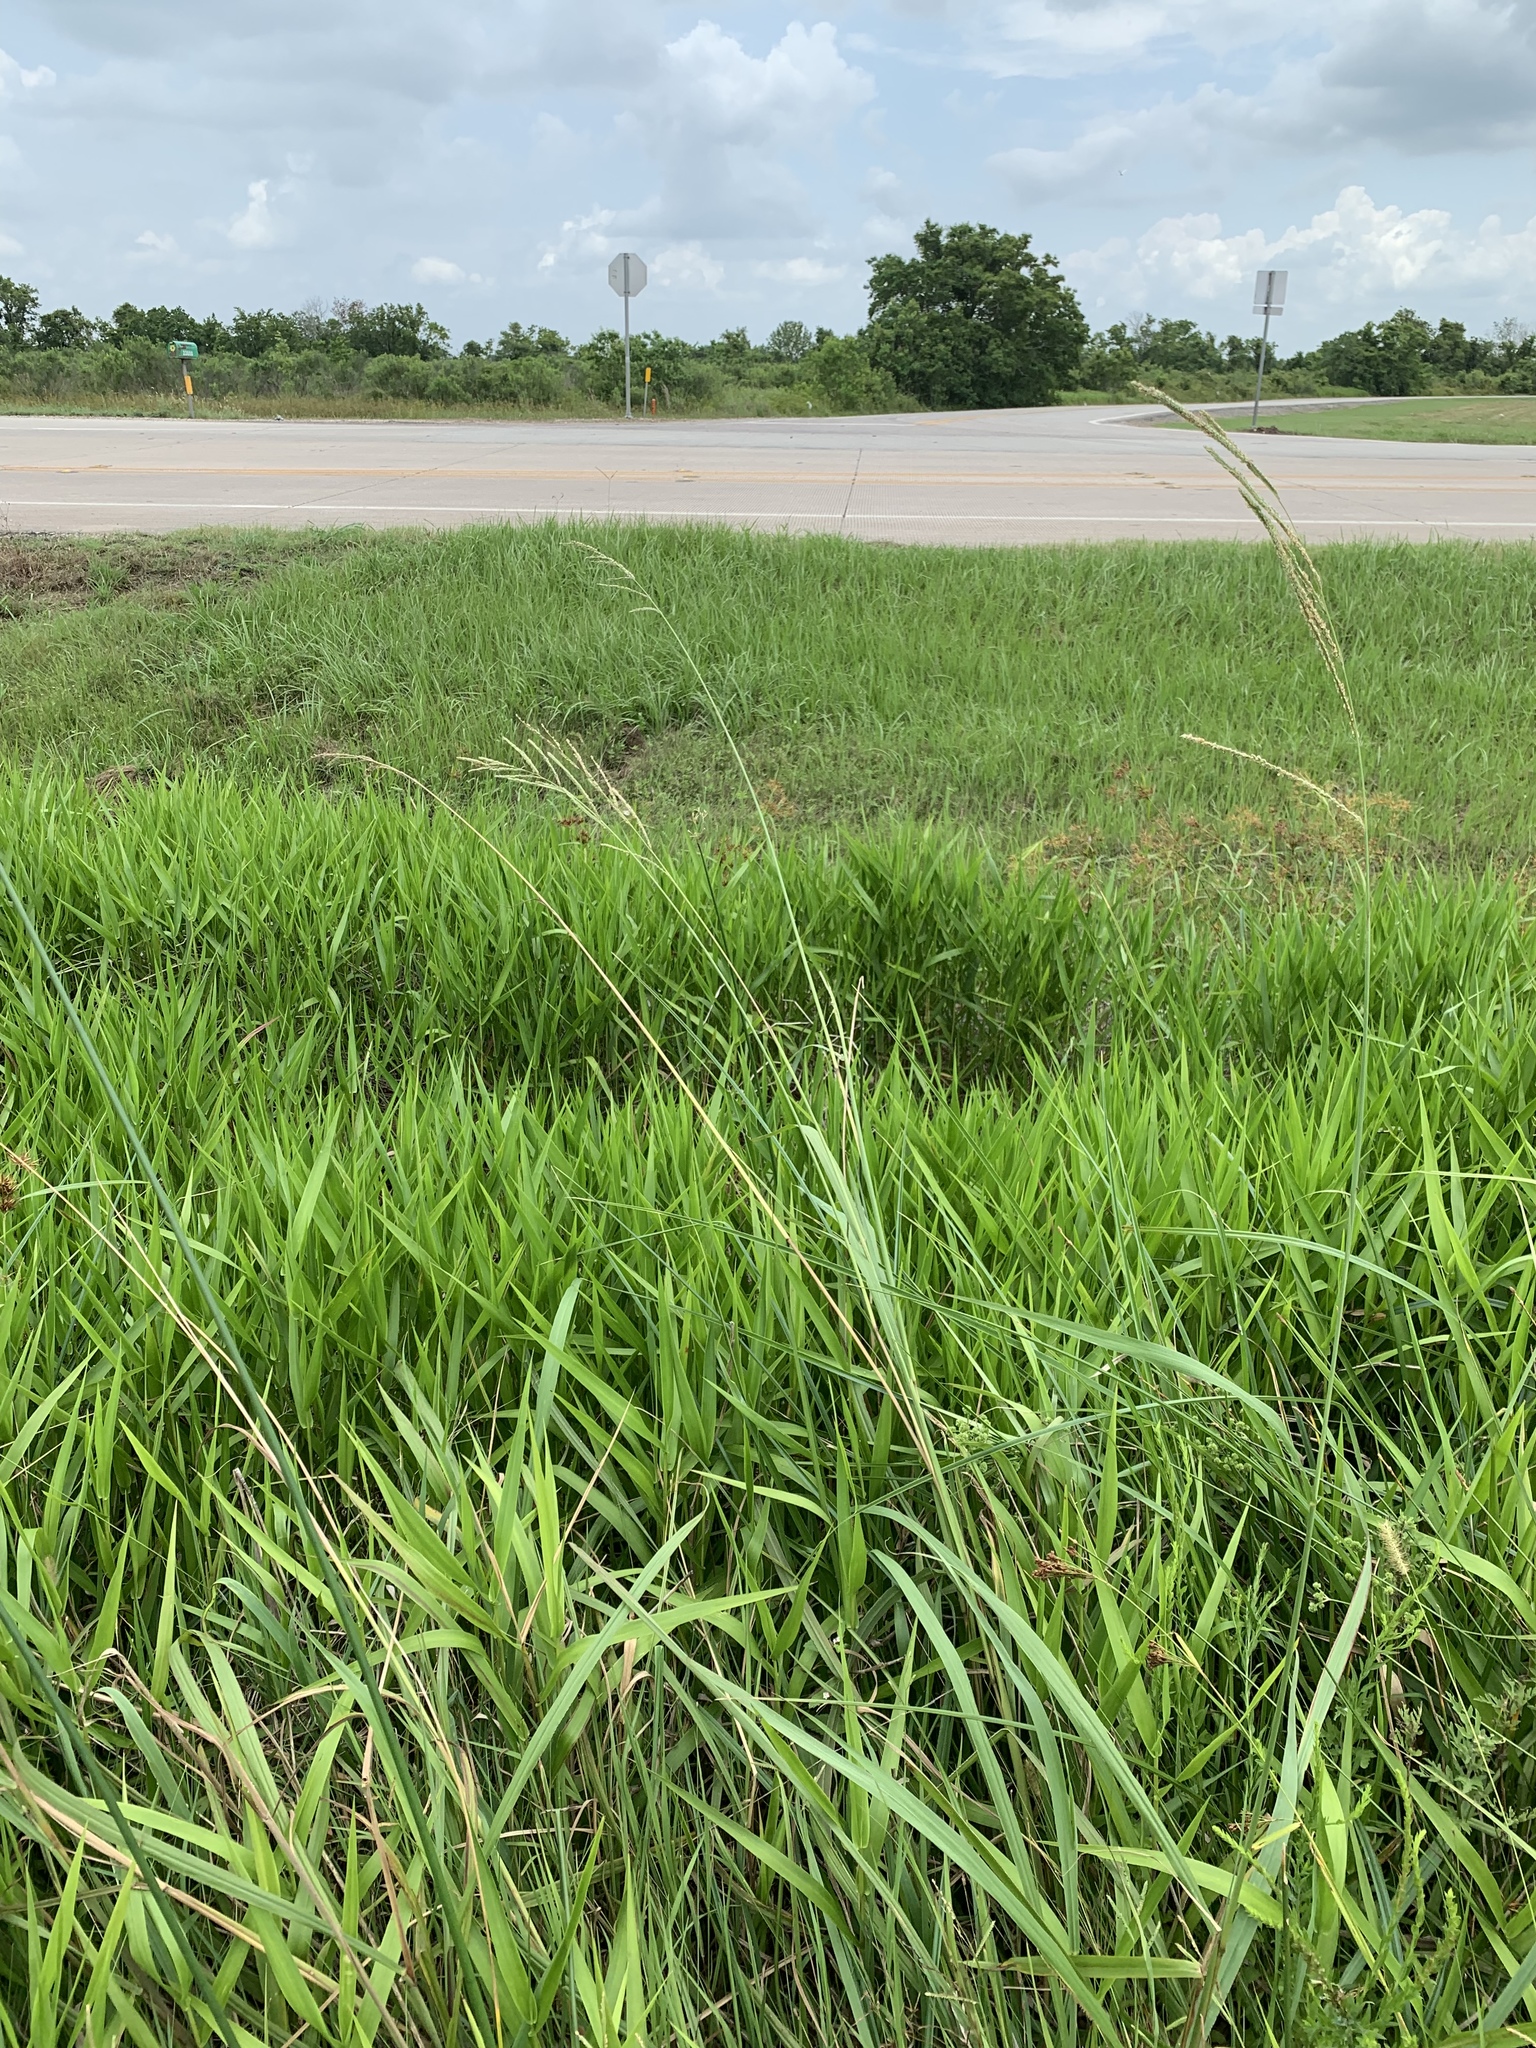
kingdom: Plantae
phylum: Tracheophyta
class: Liliopsida
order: Poales
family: Poaceae
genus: Paspalum
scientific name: Paspalum urvillei
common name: Vasey's grass
